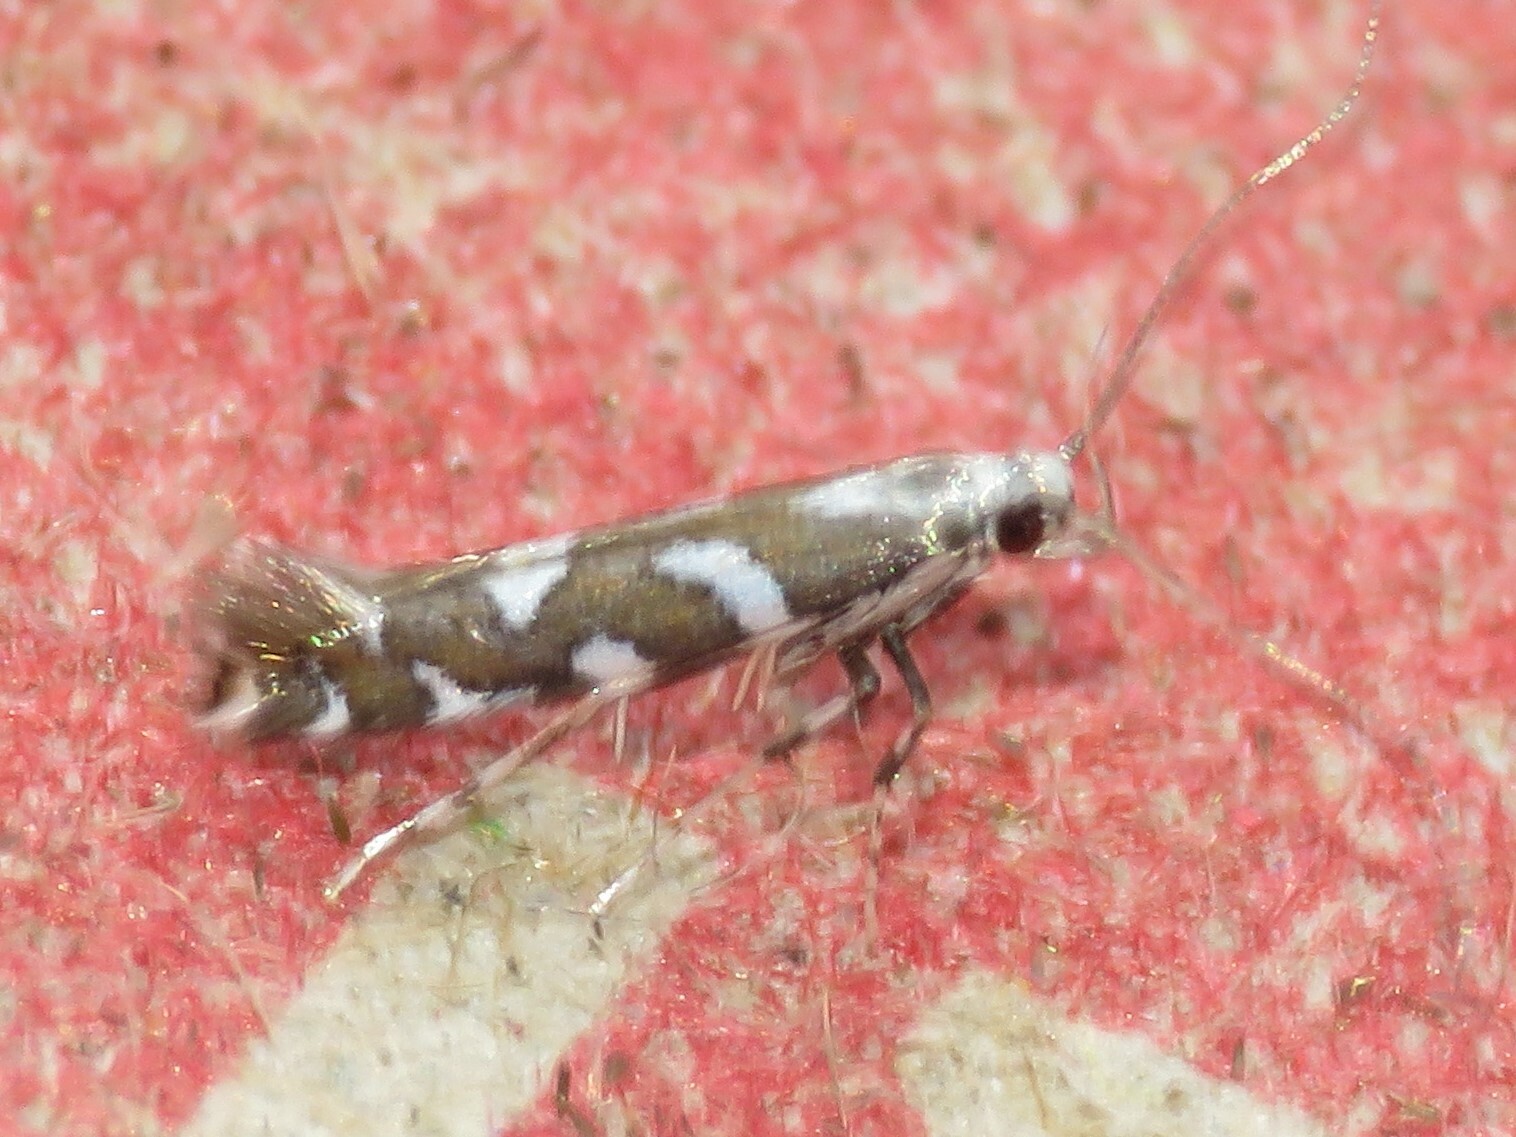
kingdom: Animalia
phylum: Arthropoda
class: Insecta
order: Lepidoptera
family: Gracillariidae
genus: Acrocercops
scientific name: Acrocercops pnosmodiella
